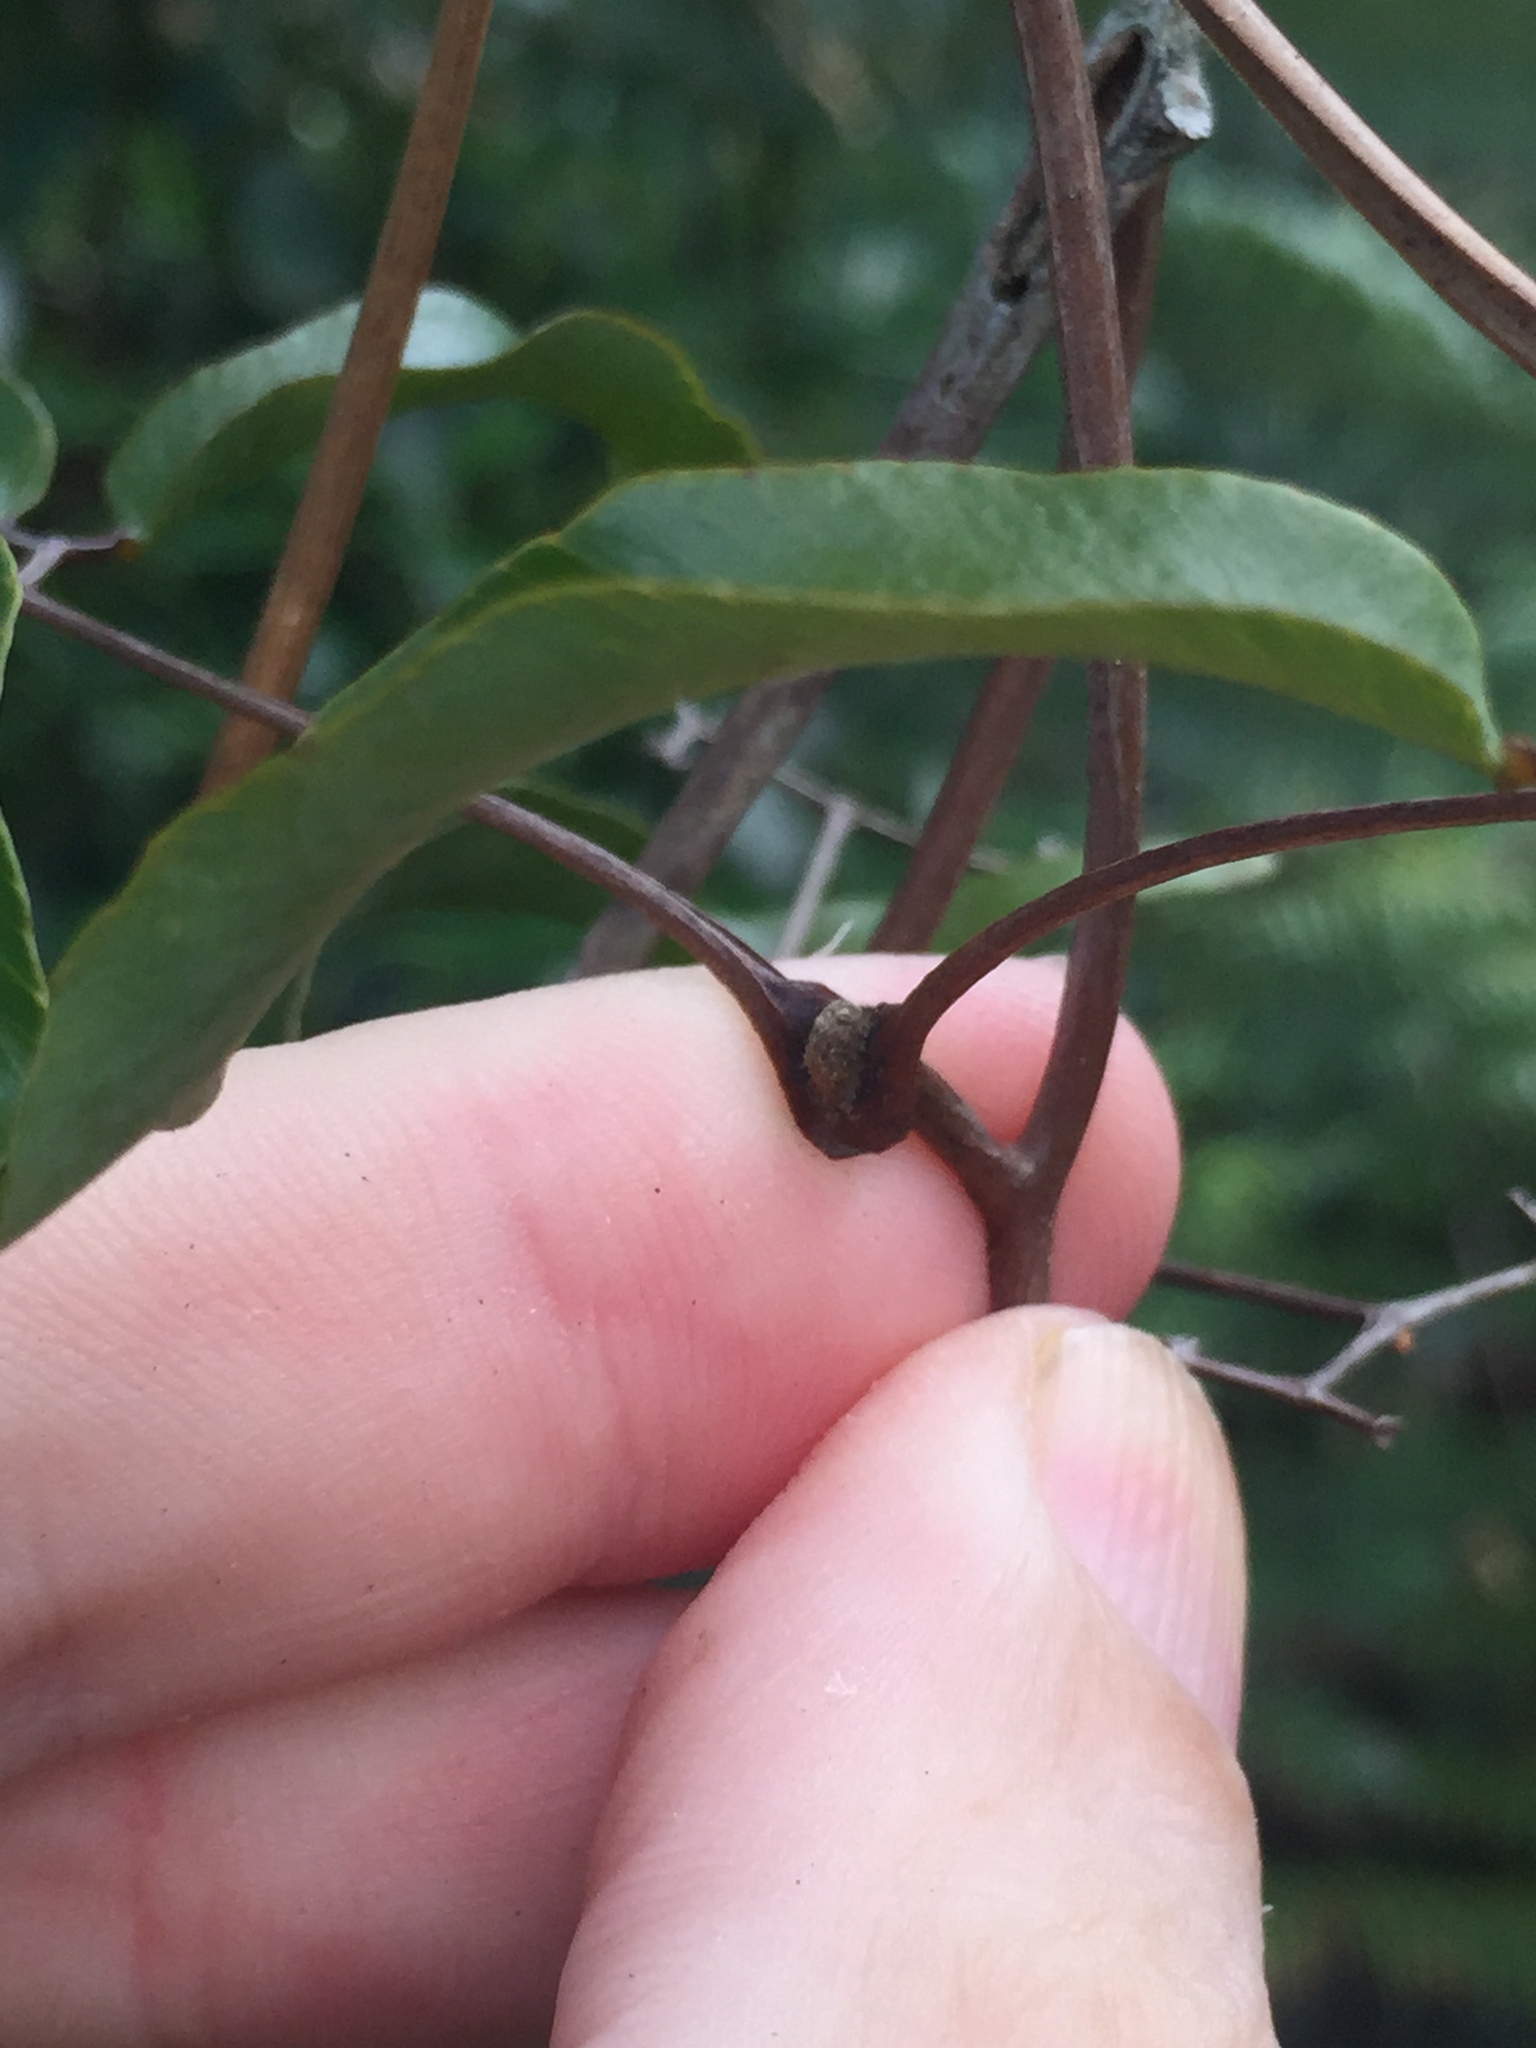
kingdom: Plantae
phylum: Tracheophyta
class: Polypodiopsida
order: Schizaeales
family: Lygodiaceae
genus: Lygodium
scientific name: Lygodium articulatum
